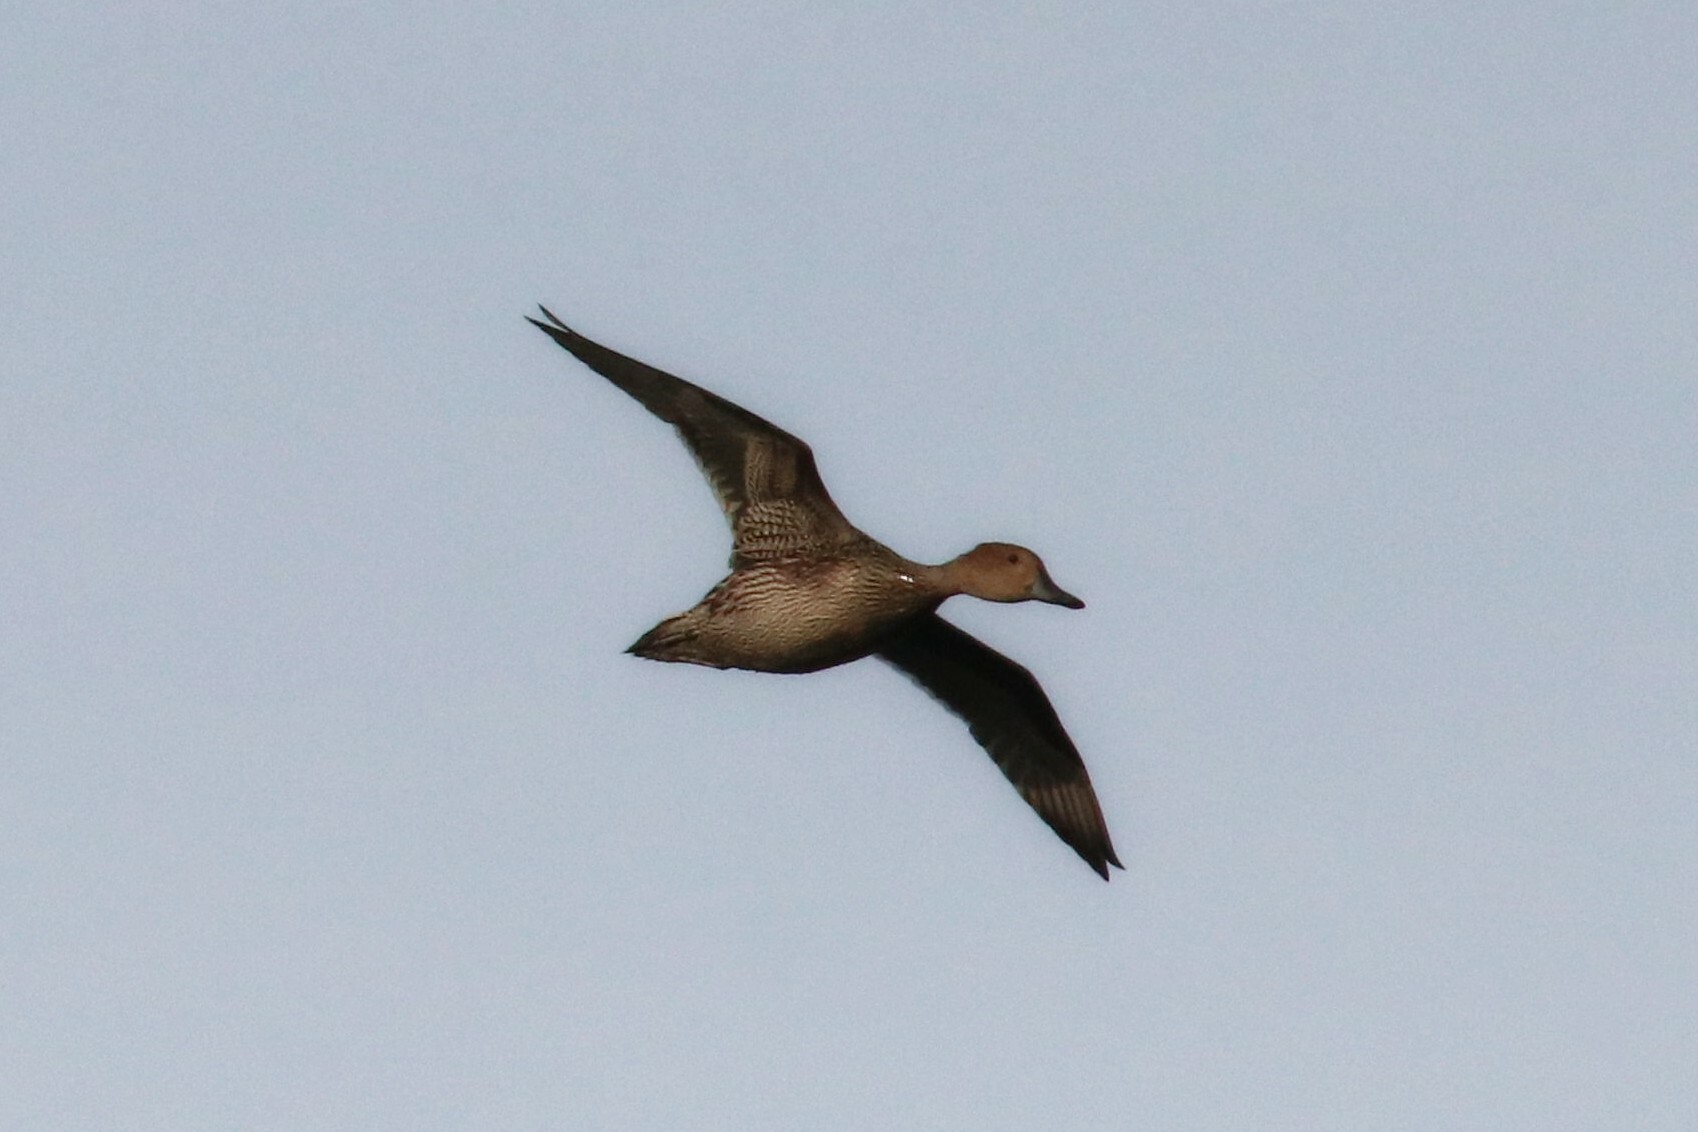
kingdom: Animalia
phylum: Chordata
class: Aves
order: Anseriformes
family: Anatidae
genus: Anas
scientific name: Anas acuta
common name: Northern pintail
